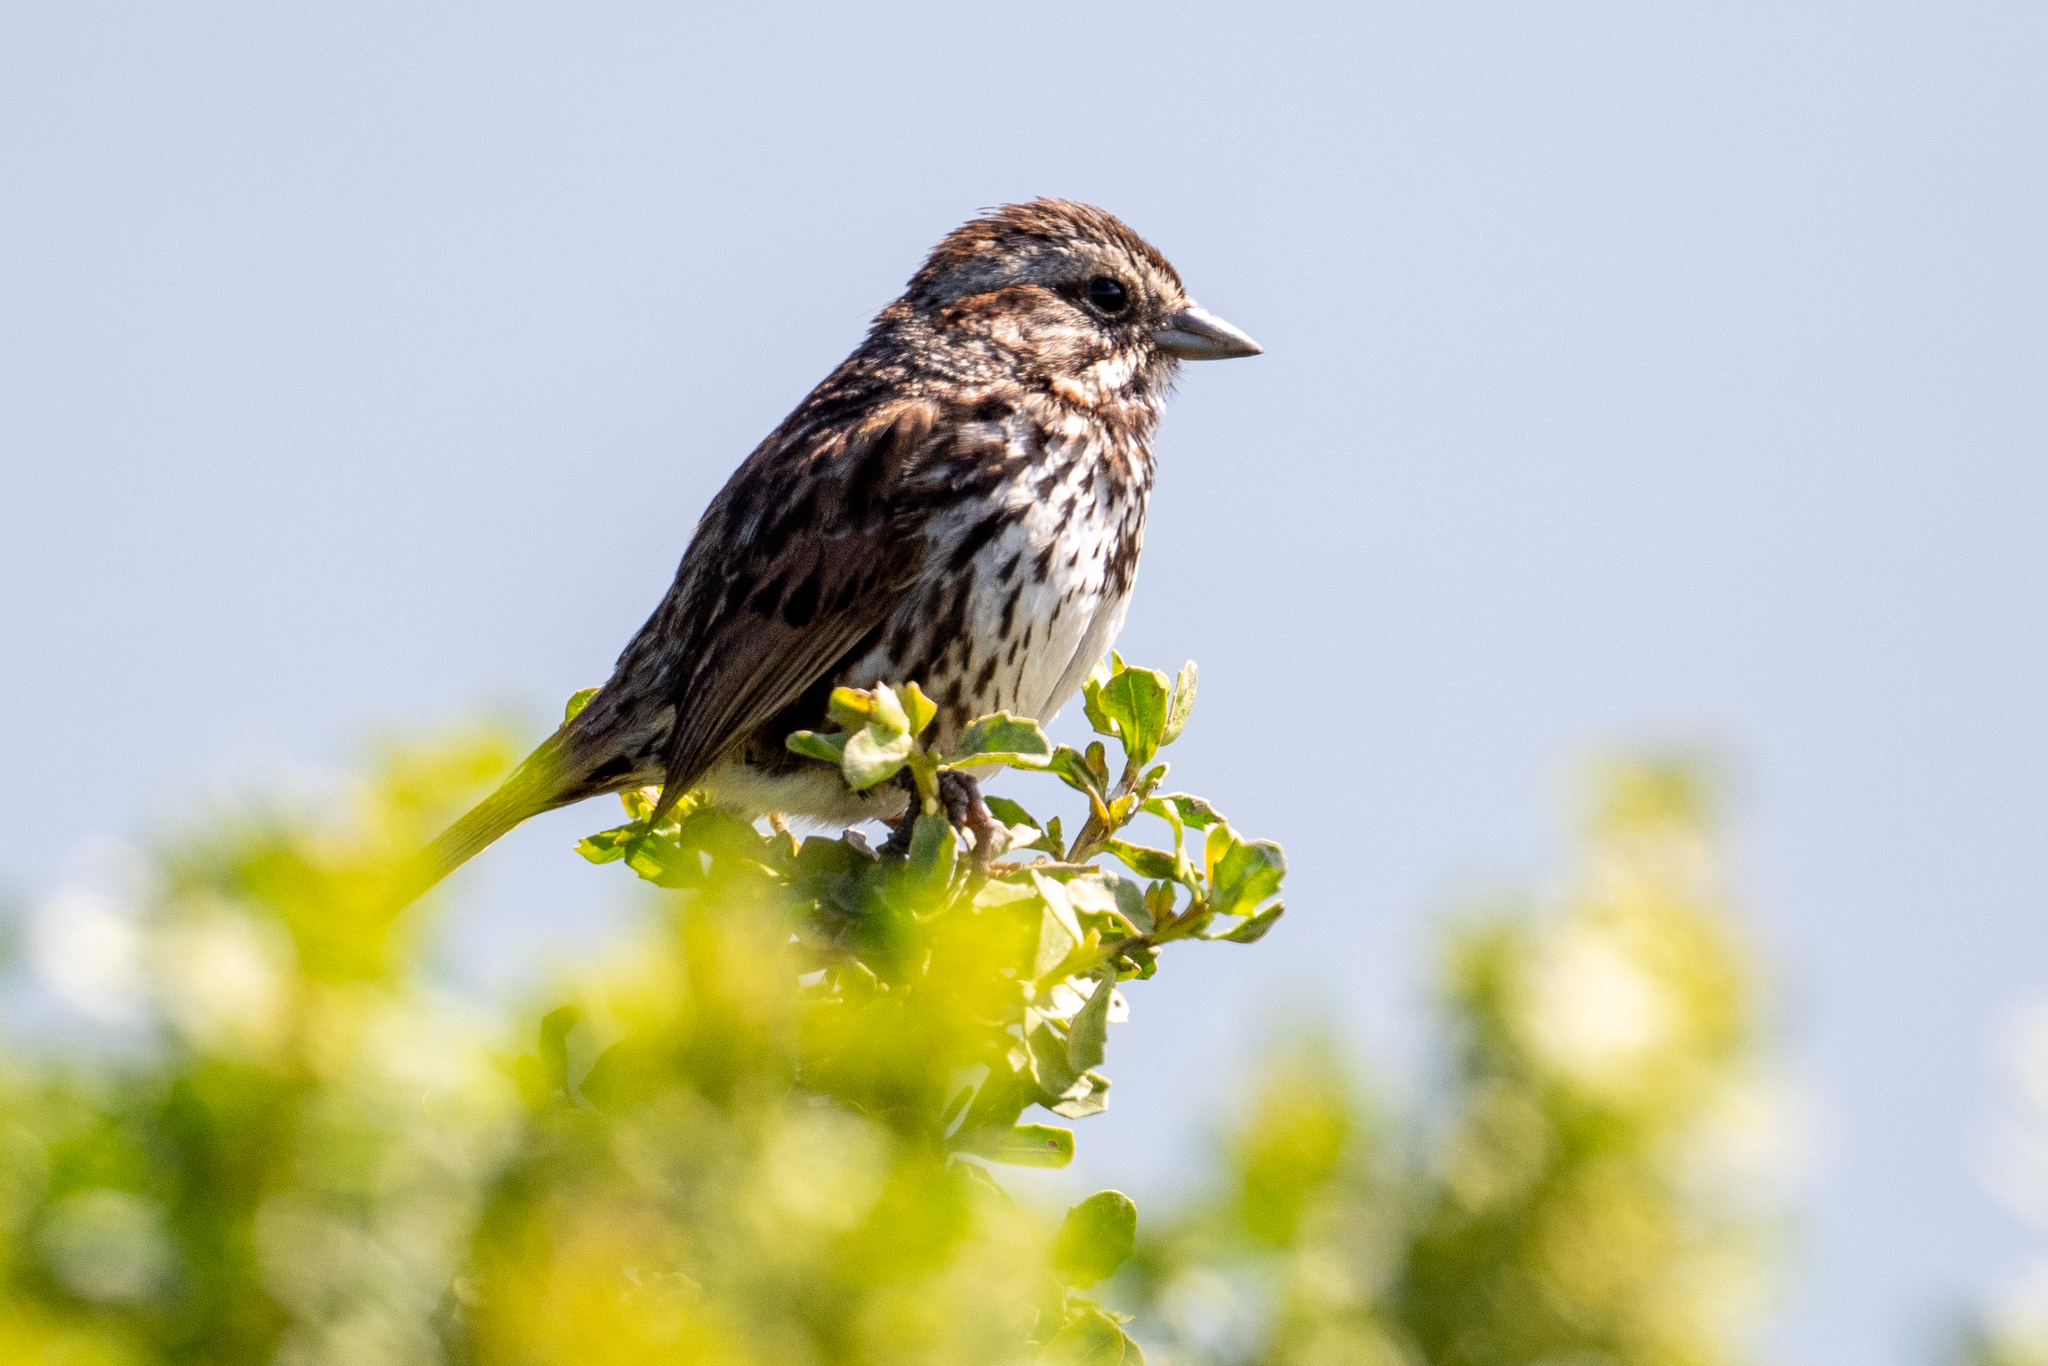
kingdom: Animalia
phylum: Chordata
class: Aves
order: Passeriformes
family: Passerellidae
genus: Melospiza
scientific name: Melospiza melodia
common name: Song sparrow
